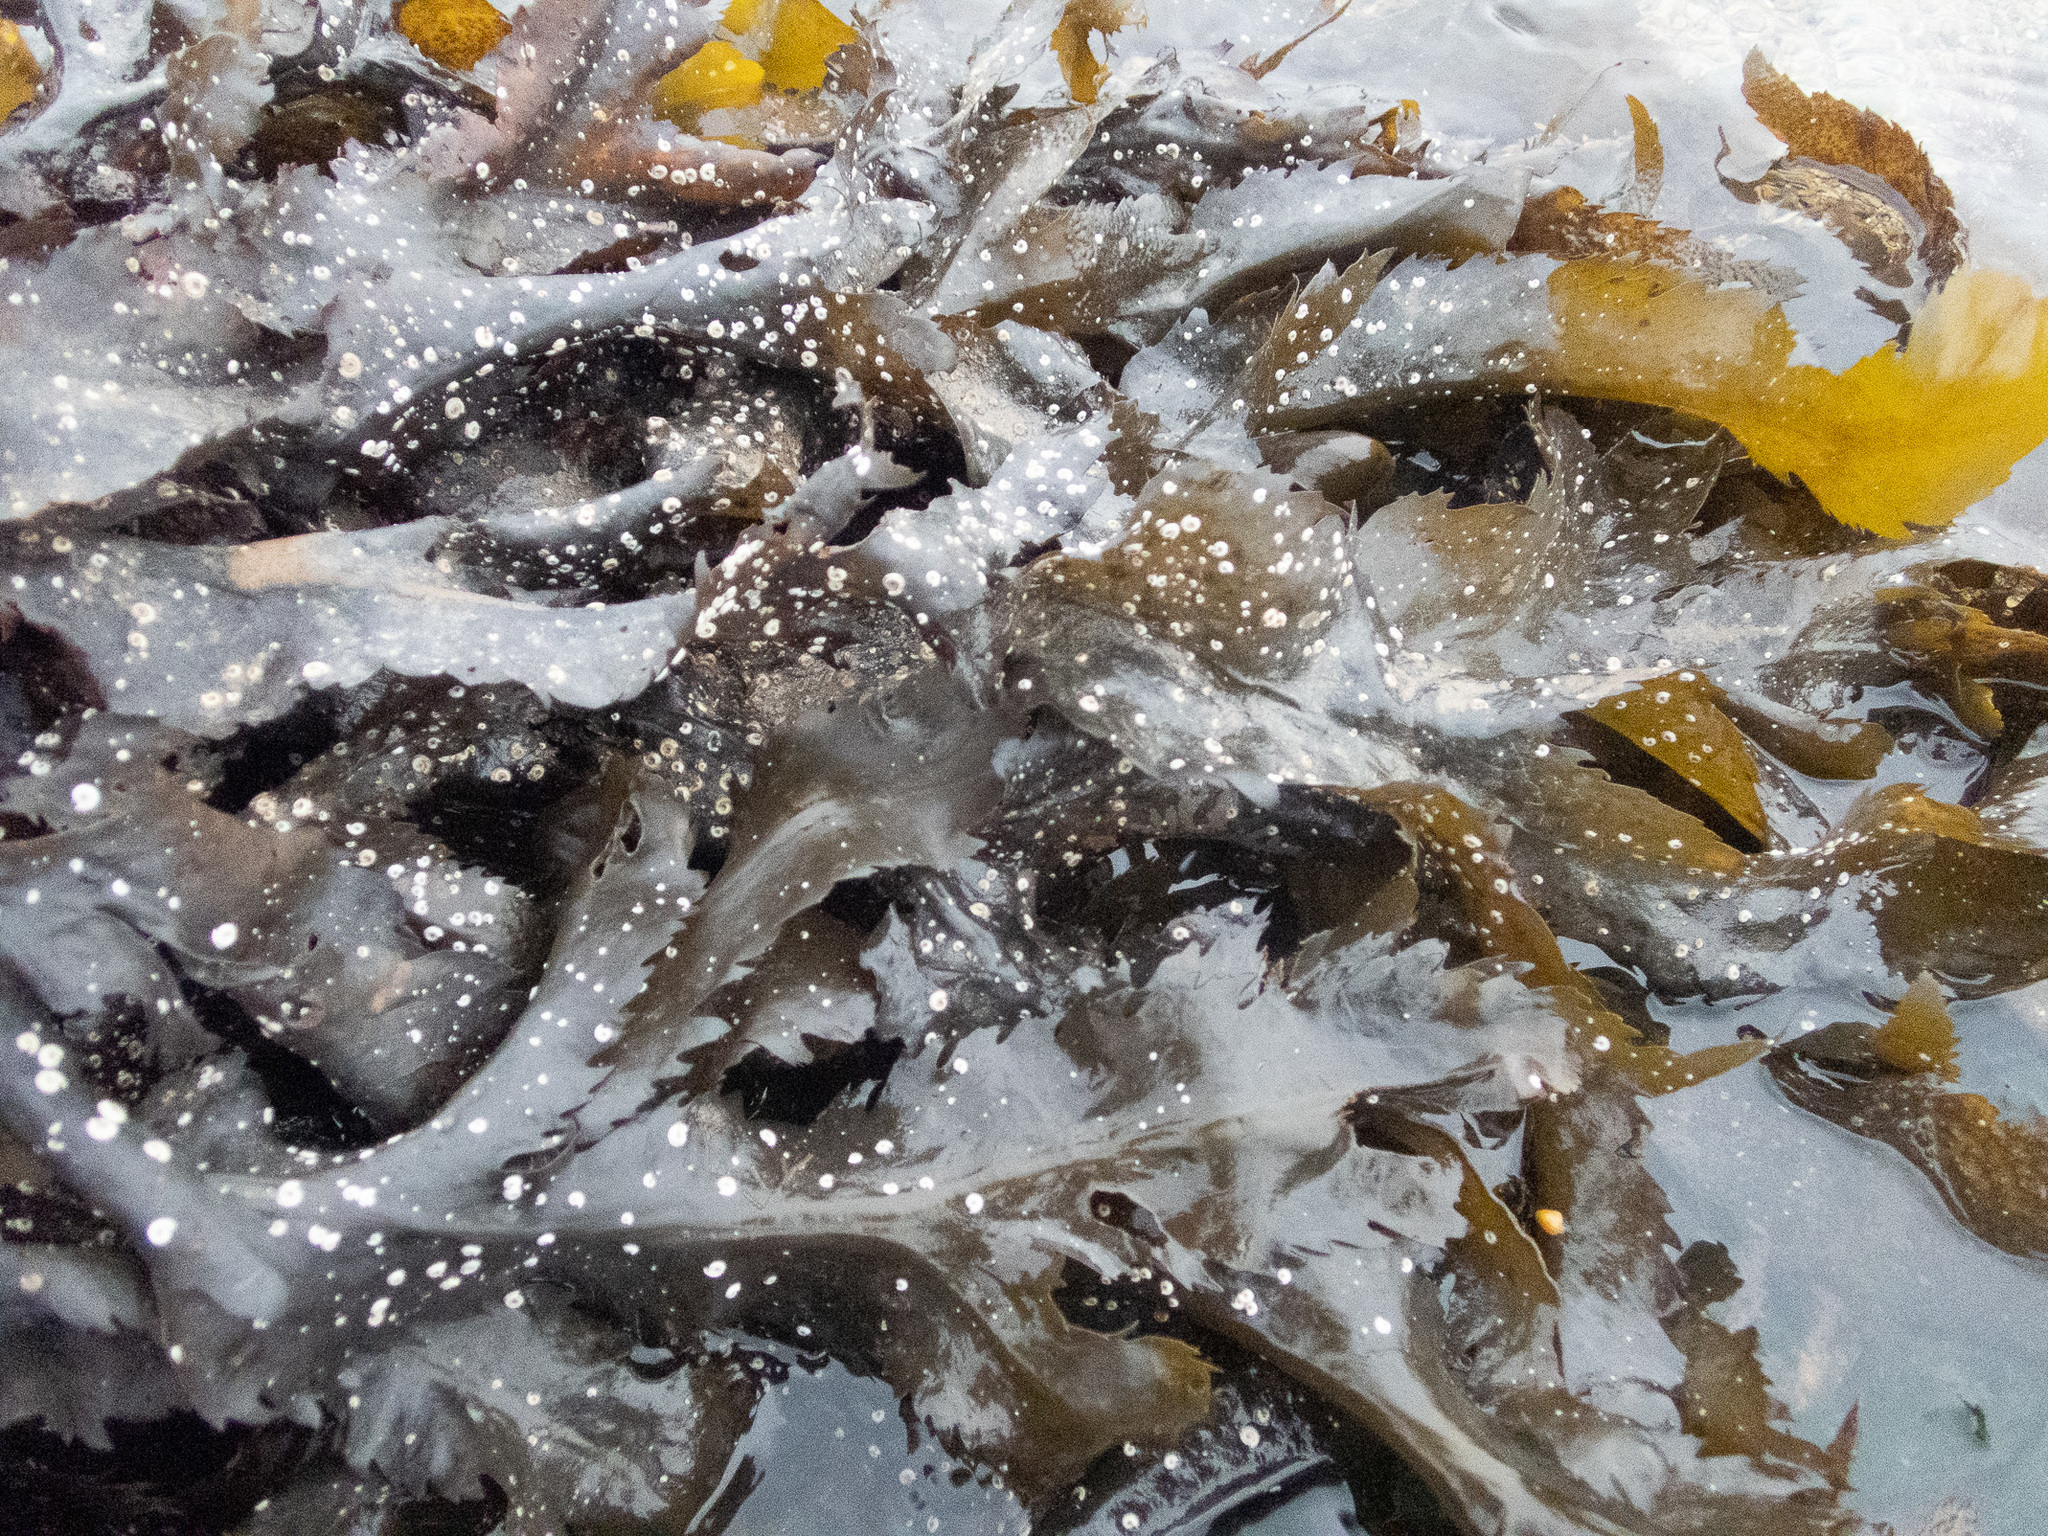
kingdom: Chromista
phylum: Ochrophyta
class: Phaeophyceae
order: Fucales
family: Fucaceae
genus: Fucus
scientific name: Fucus serratus
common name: Toothed wrack
